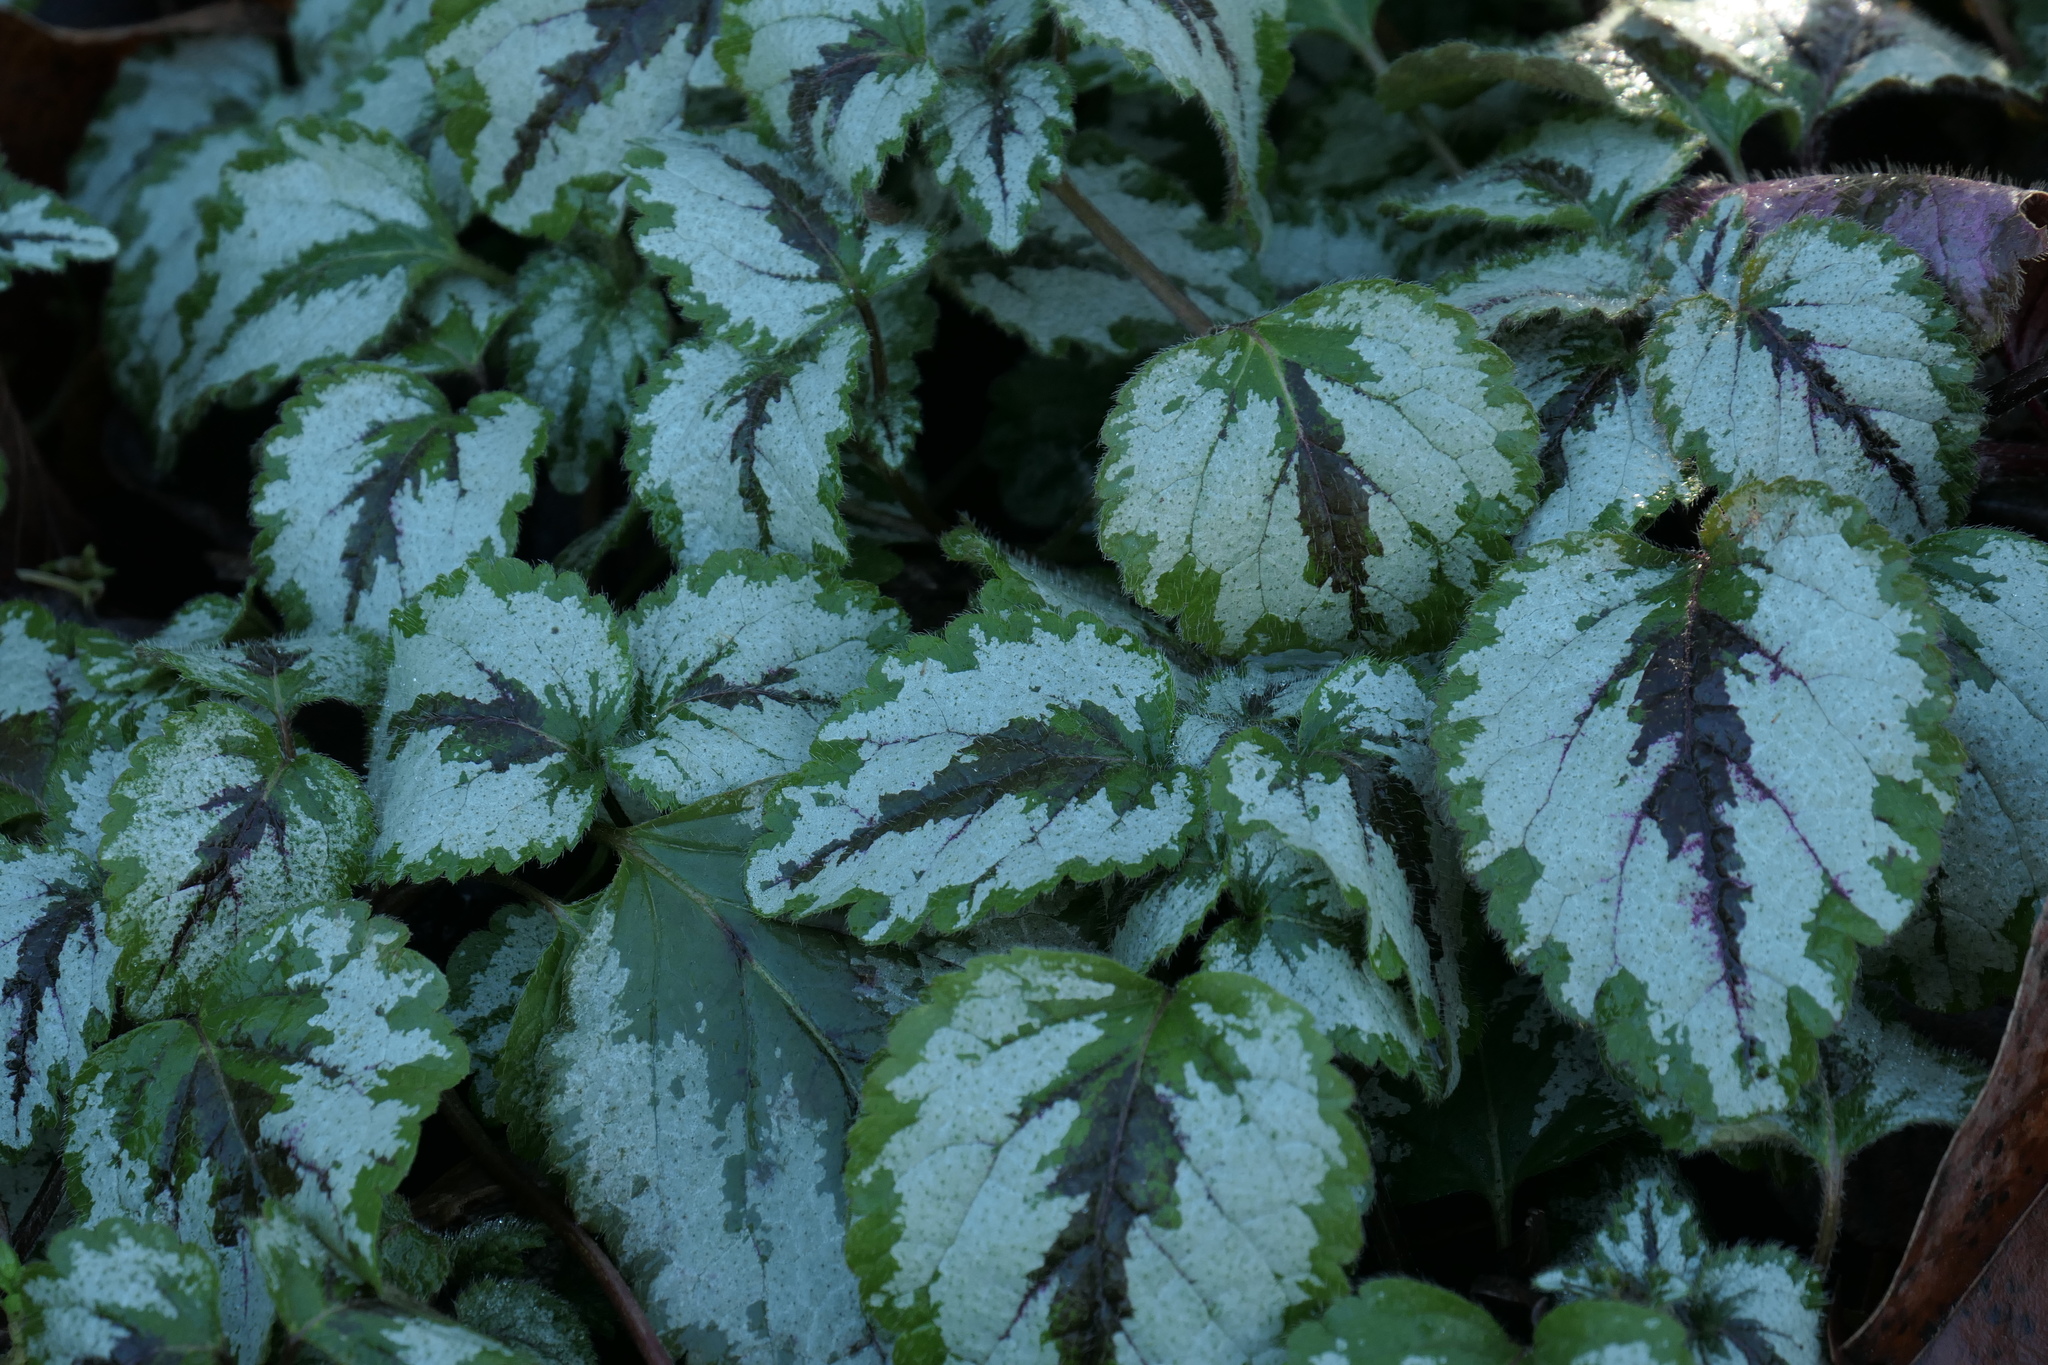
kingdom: Plantae
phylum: Tracheophyta
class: Magnoliopsida
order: Lamiales
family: Lamiaceae
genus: Lamium
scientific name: Lamium galeobdolon
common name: Yellow archangel
